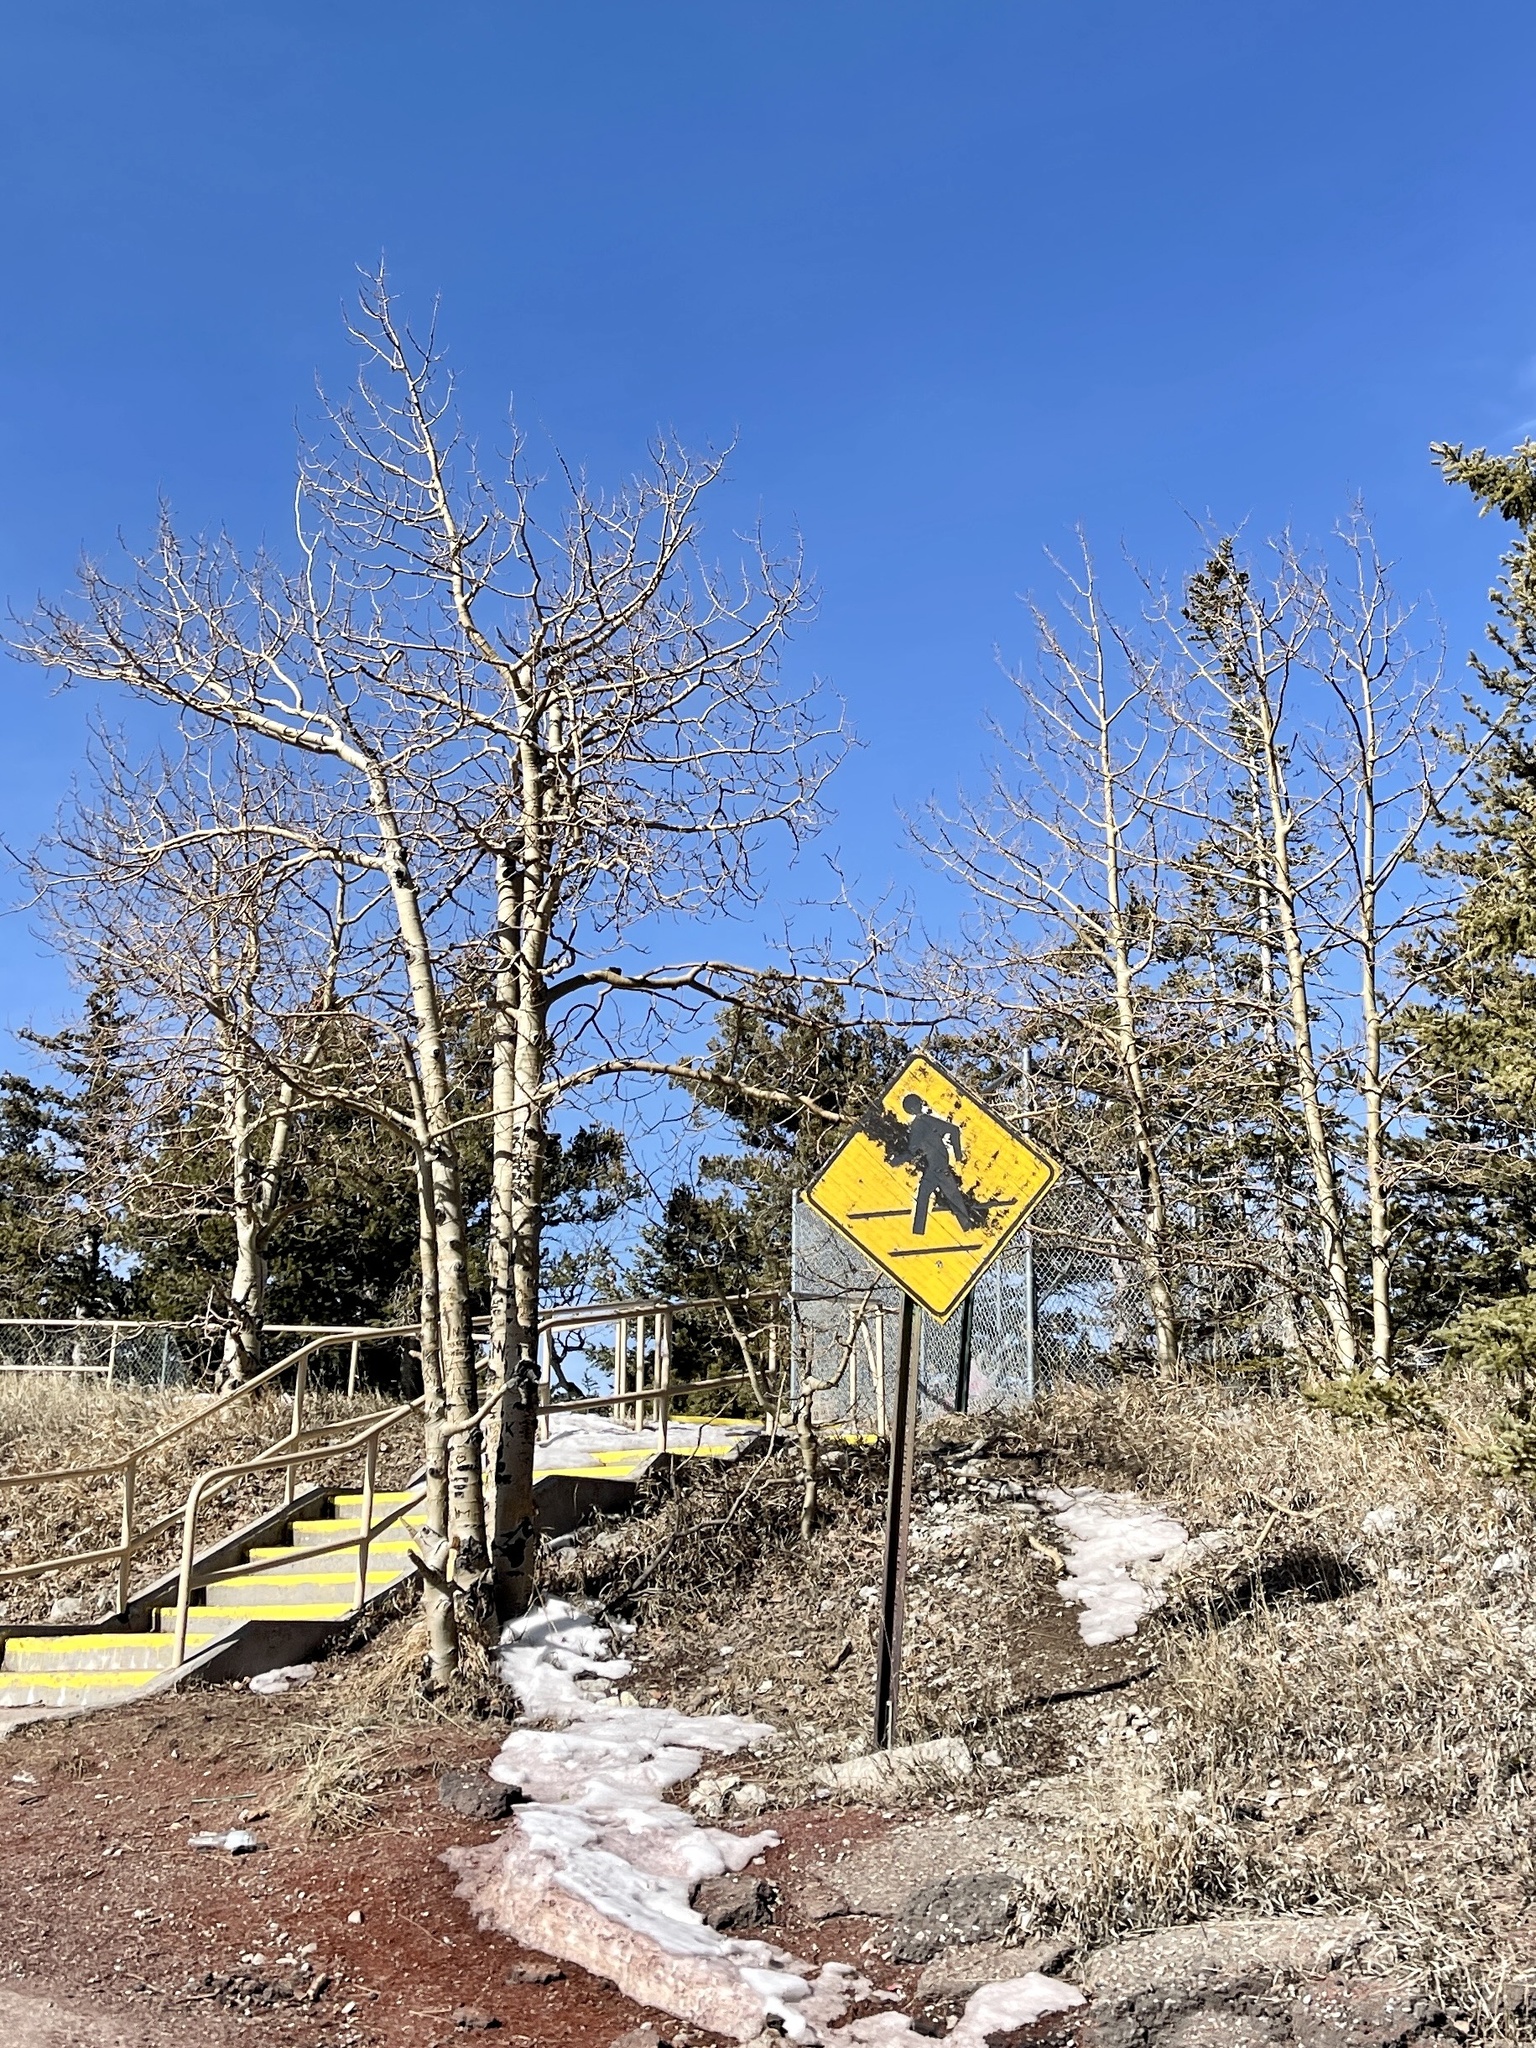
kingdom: Plantae
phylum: Tracheophyta
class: Magnoliopsida
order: Malpighiales
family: Salicaceae
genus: Populus
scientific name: Populus tremuloides
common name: Quaking aspen
